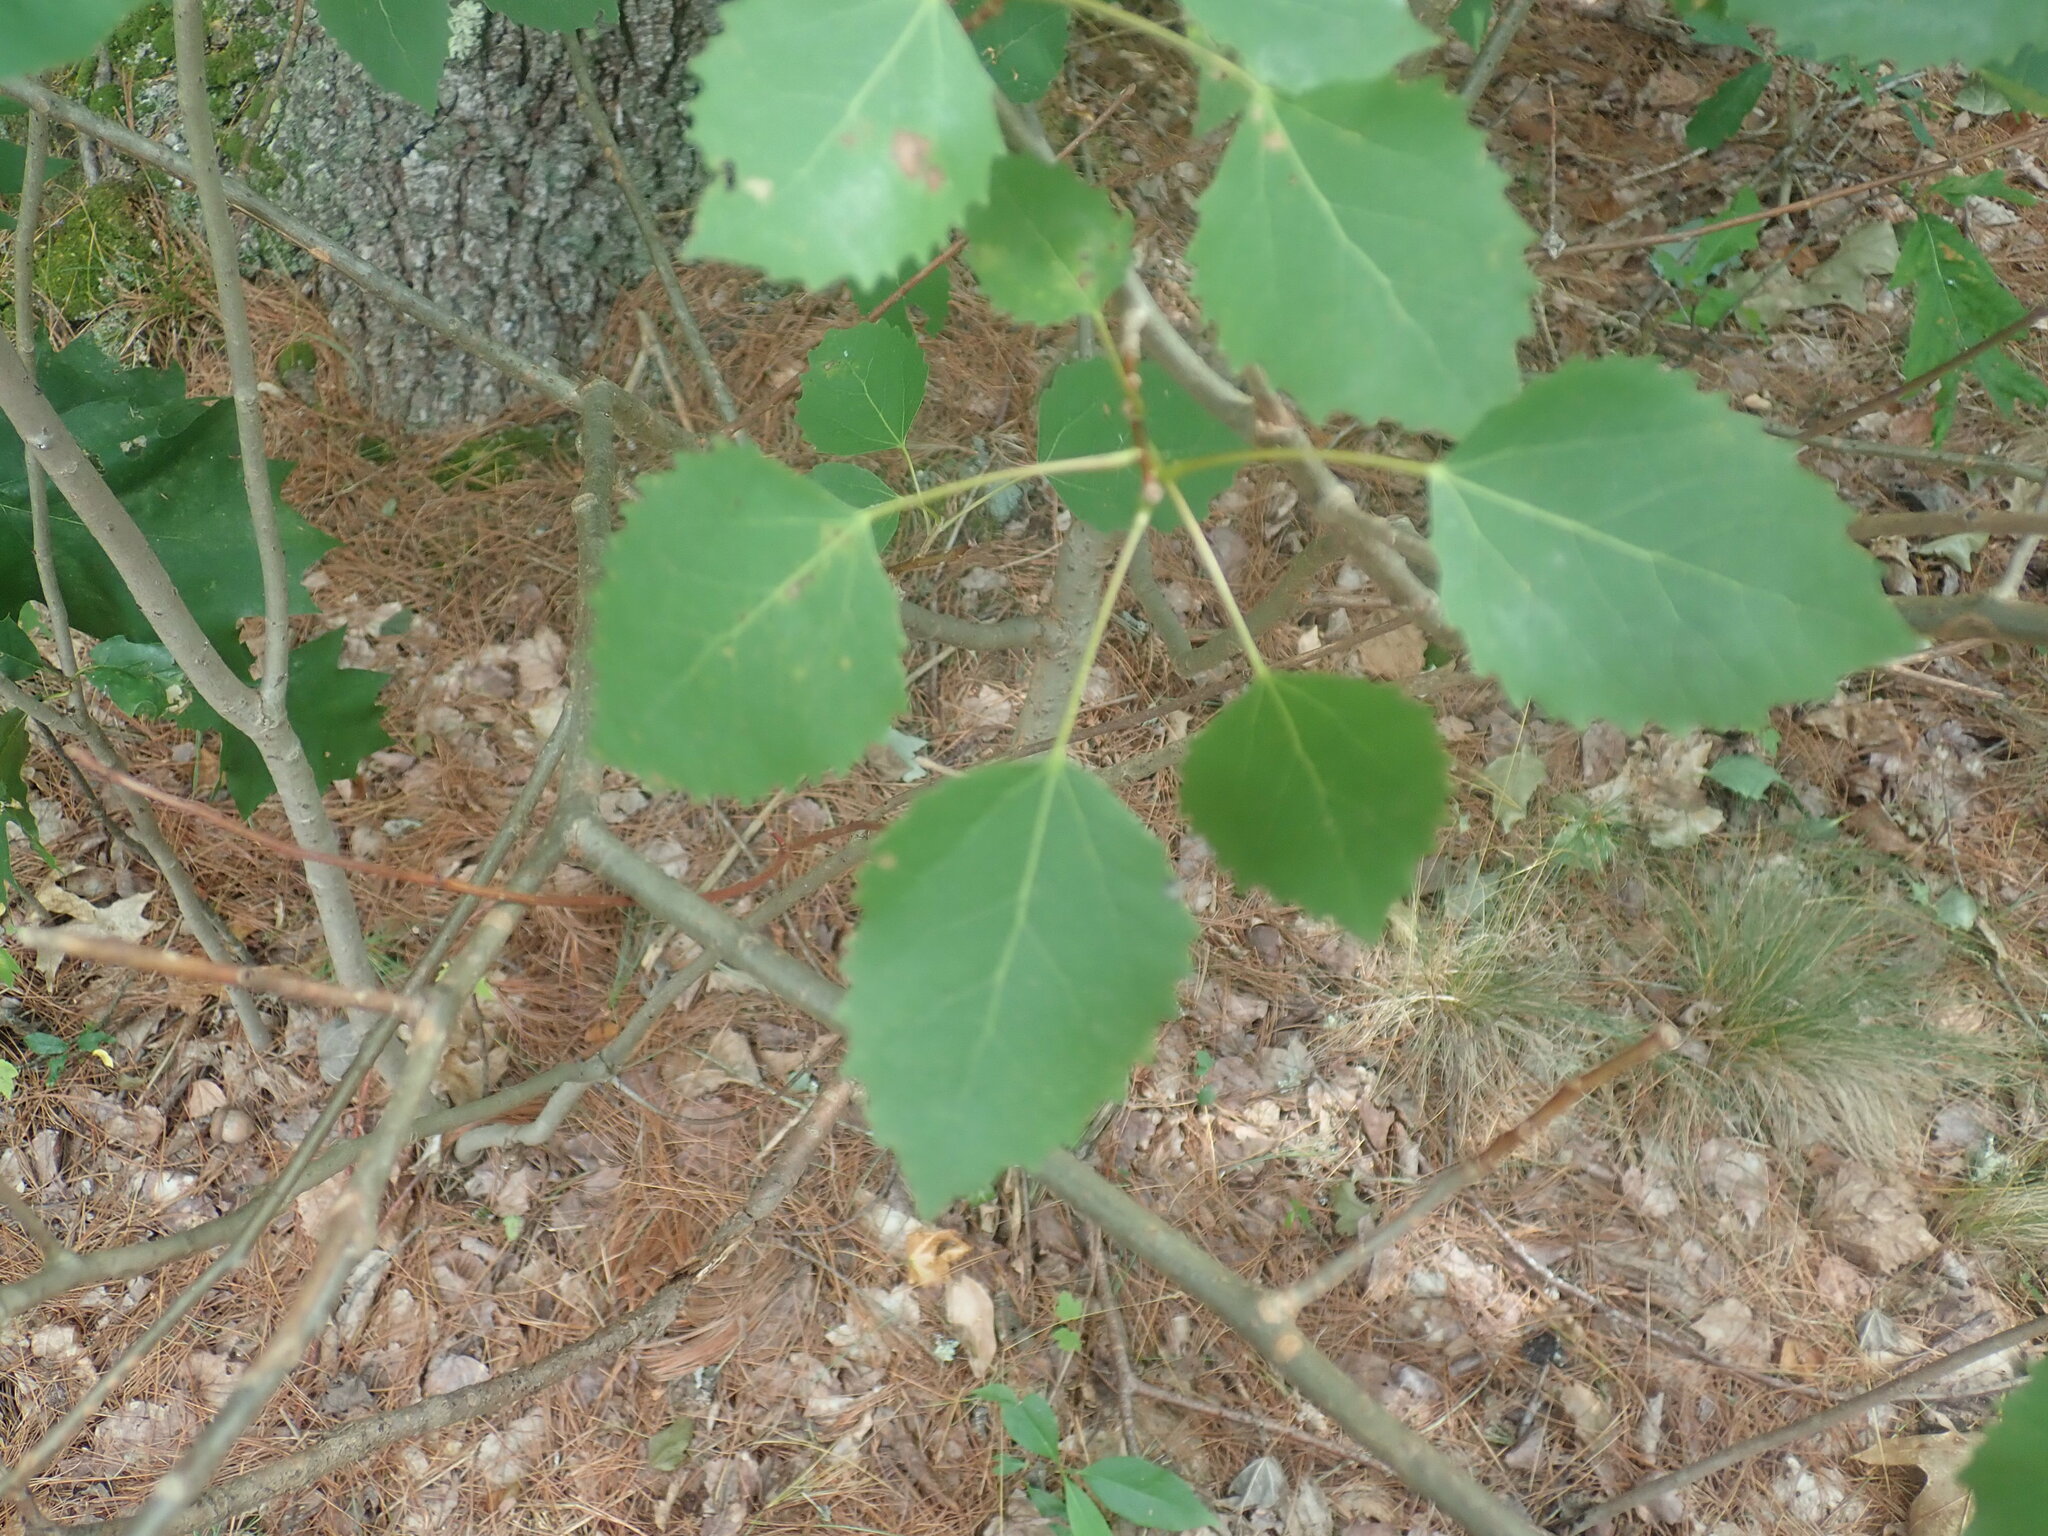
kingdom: Plantae
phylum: Tracheophyta
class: Magnoliopsida
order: Malpighiales
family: Salicaceae
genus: Populus
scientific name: Populus grandidentata
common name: Bigtooth aspen
